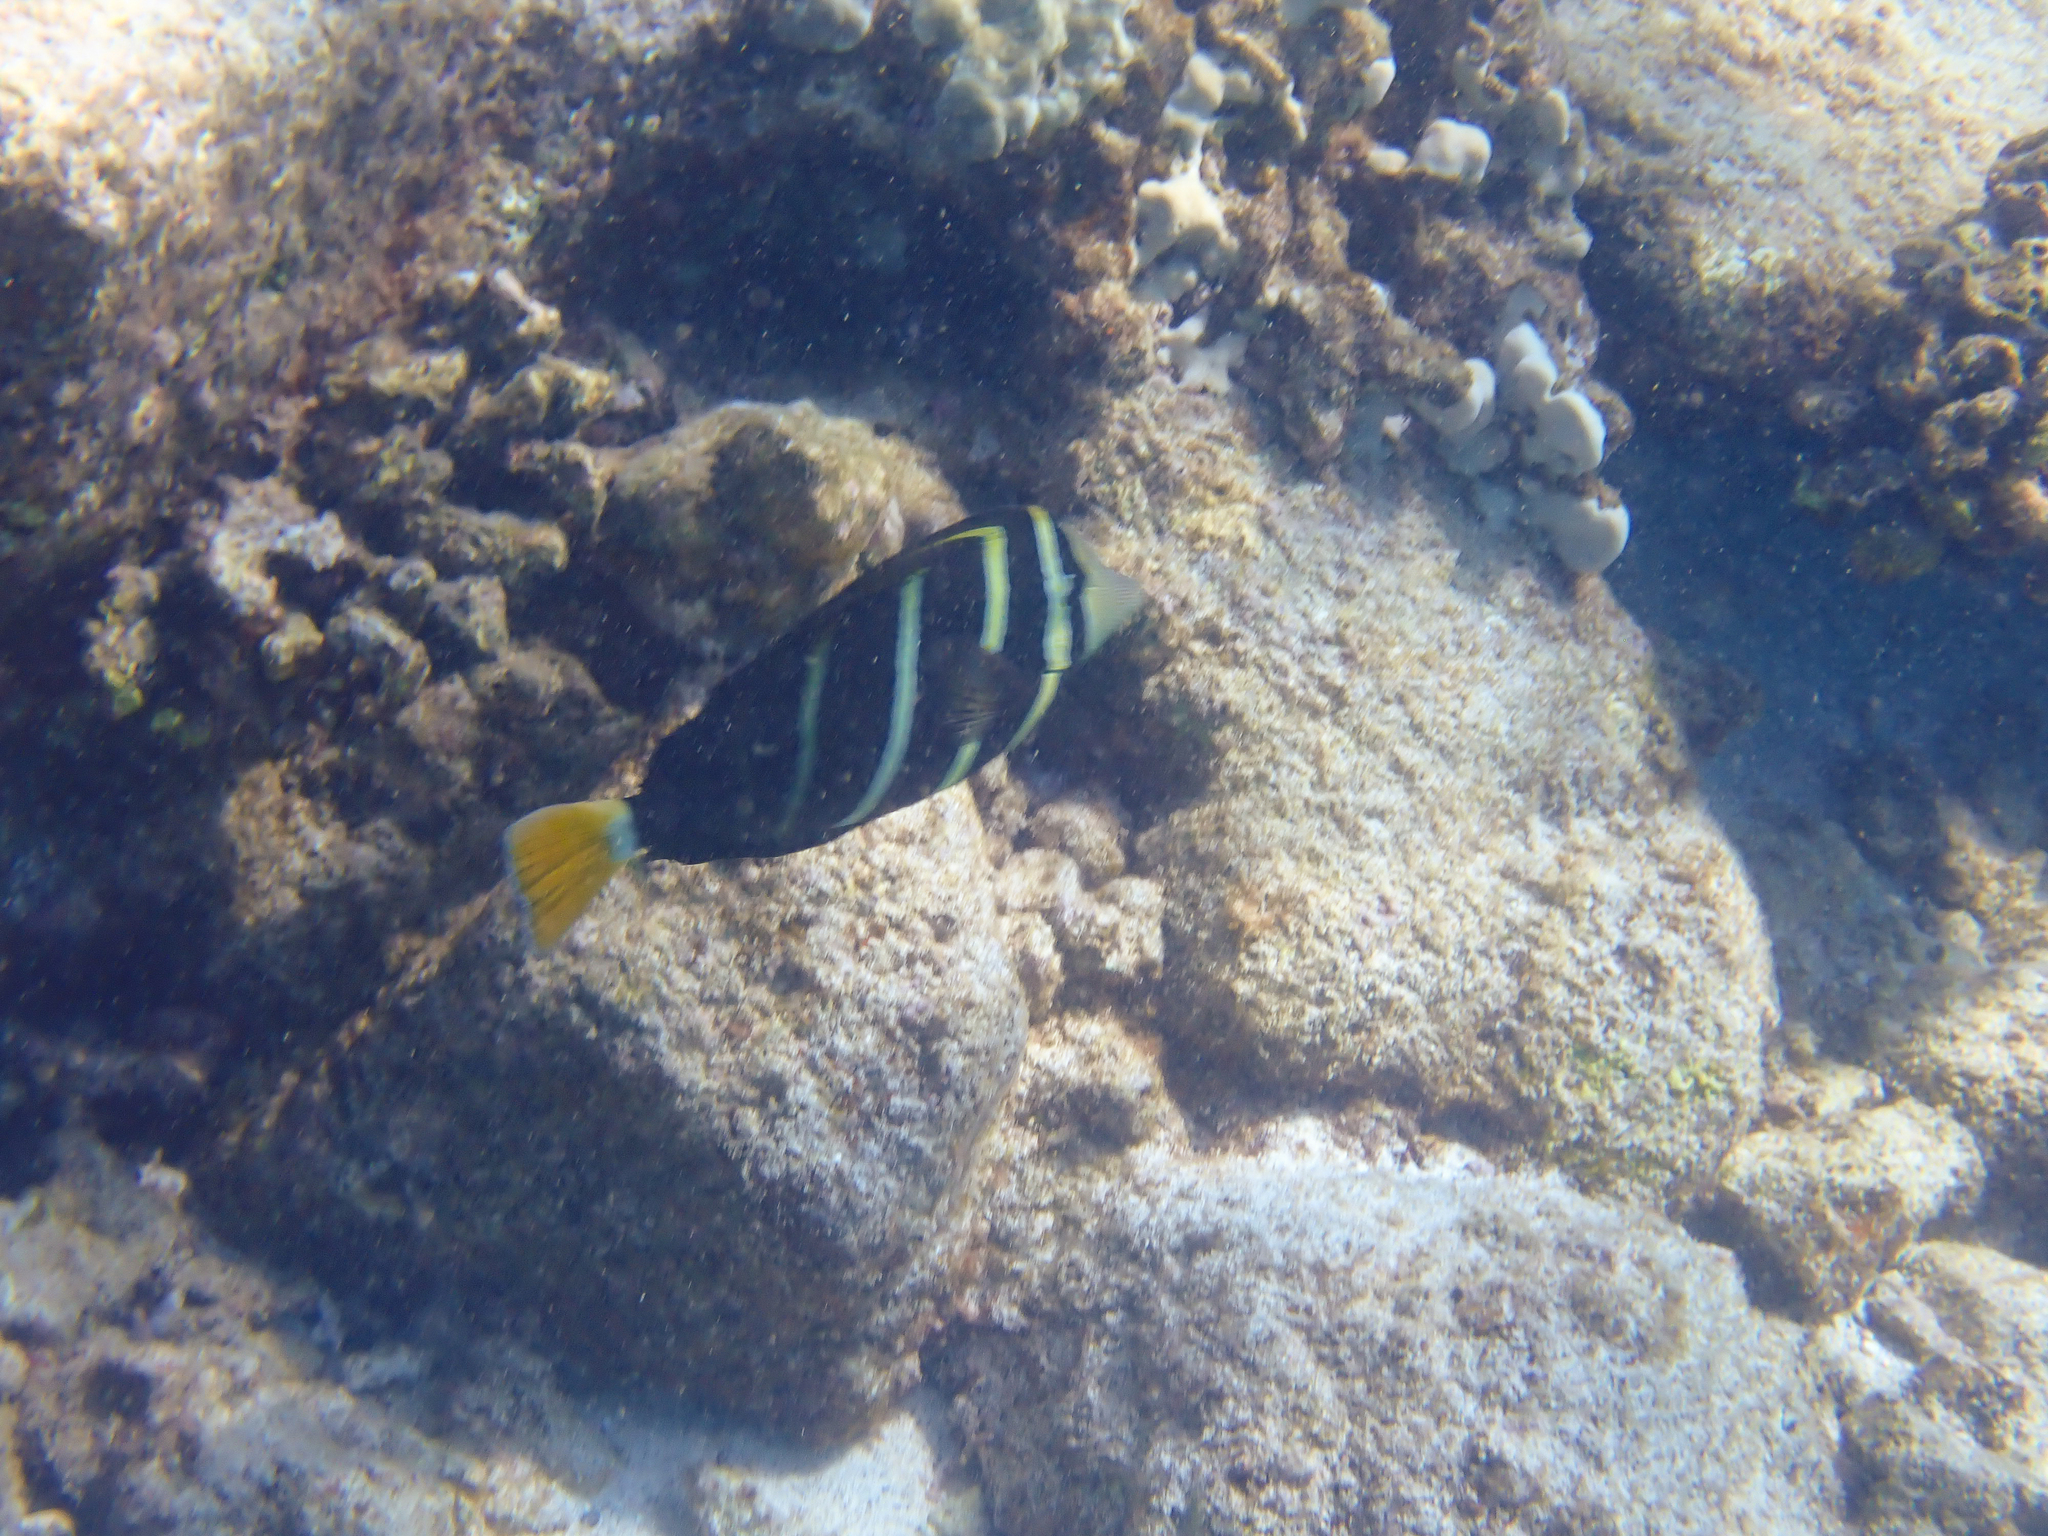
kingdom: Animalia
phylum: Chordata
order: Perciformes
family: Acanthuridae
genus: Zebrasoma
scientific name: Zebrasoma veliferum
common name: Sailfin surgeonfish
